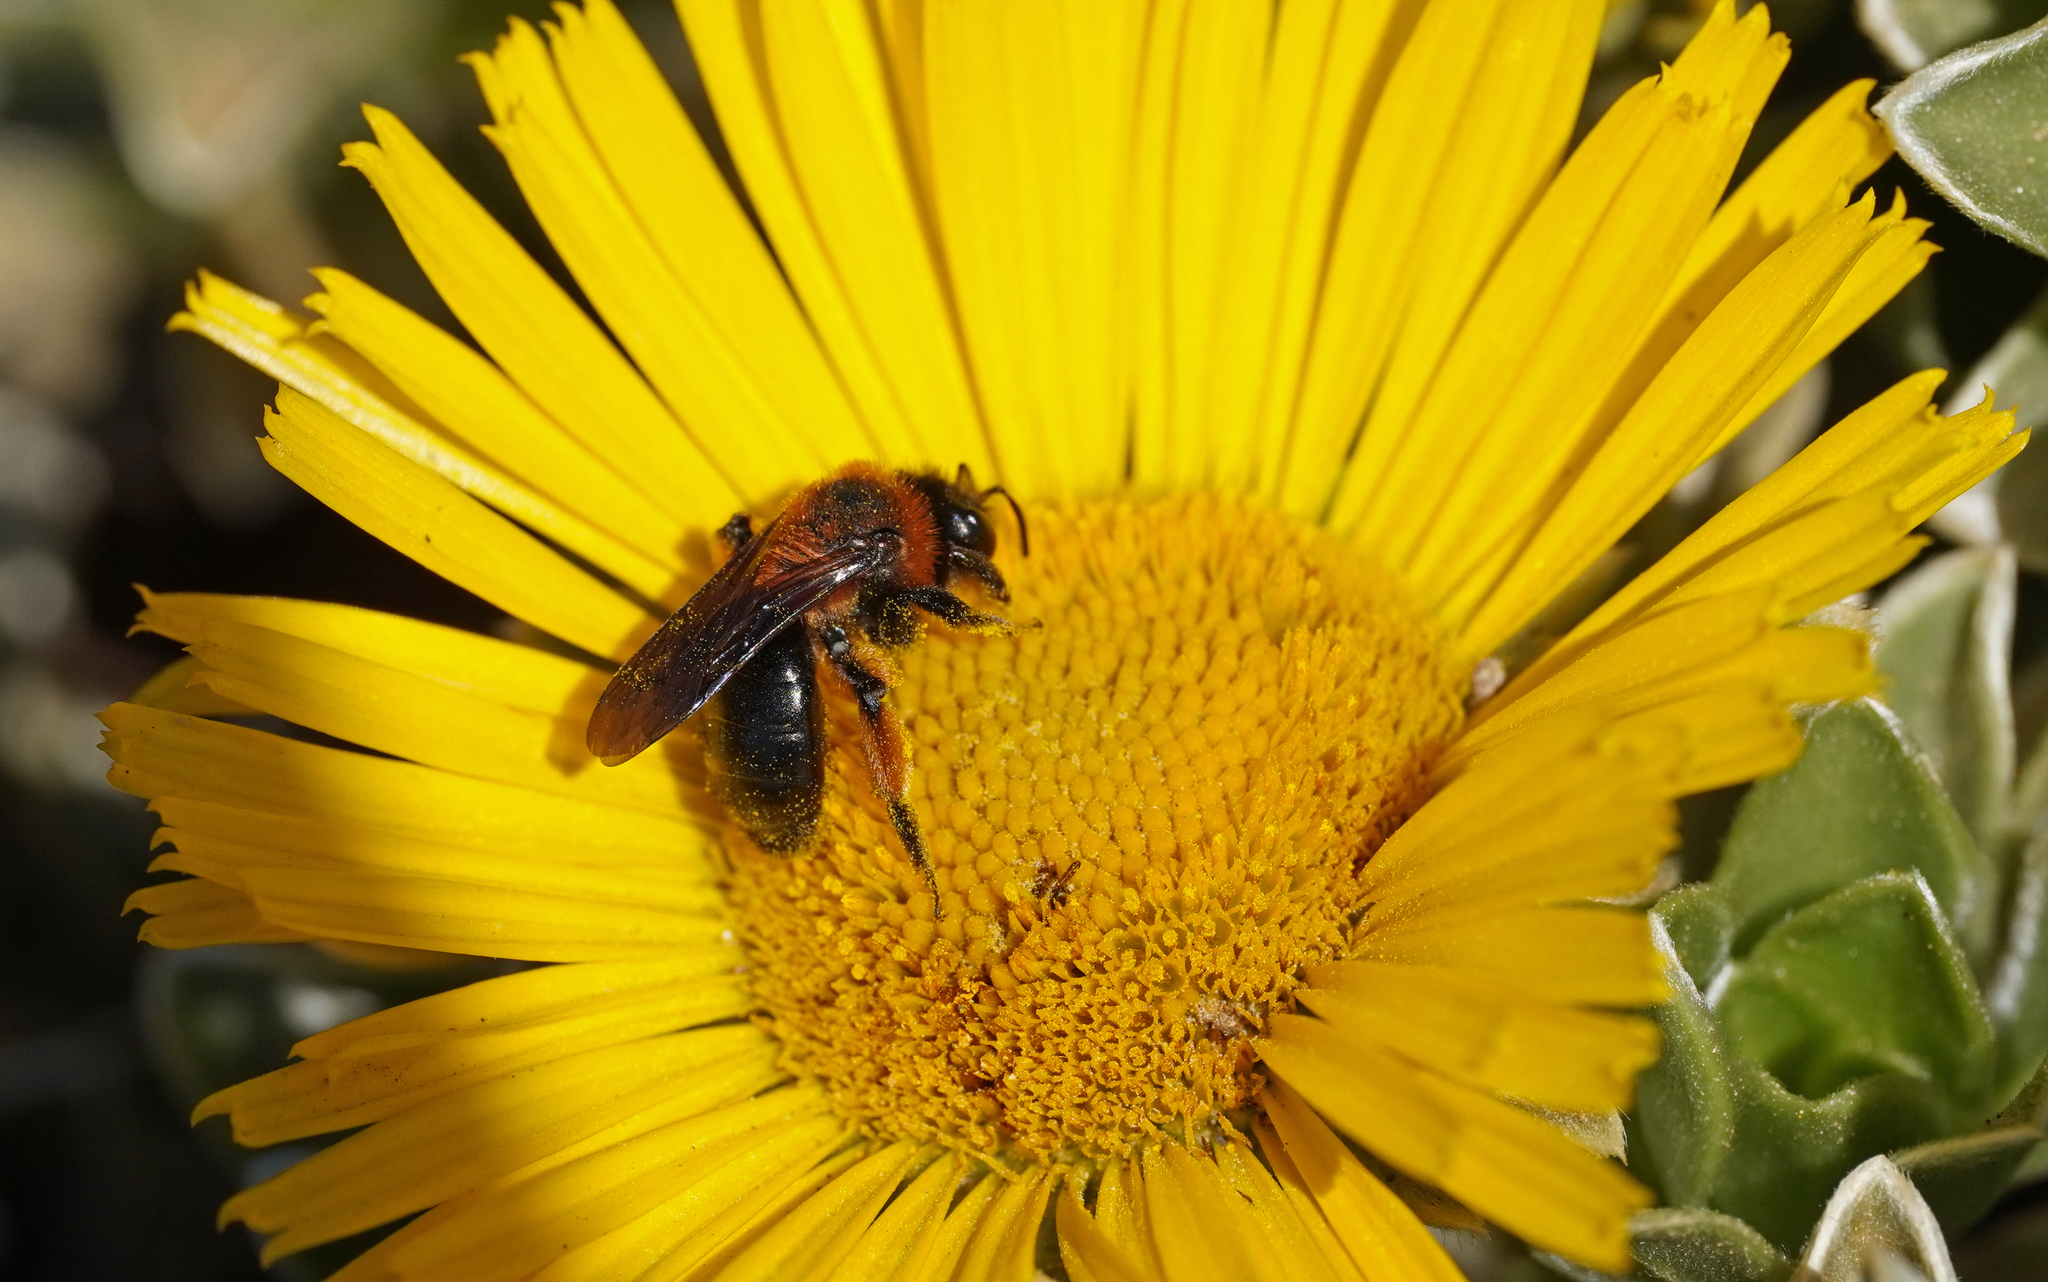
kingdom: Animalia
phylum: Arthropoda
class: Insecta
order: Hymenoptera
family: Andrenidae
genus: Andrena
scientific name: Andrena vachali
